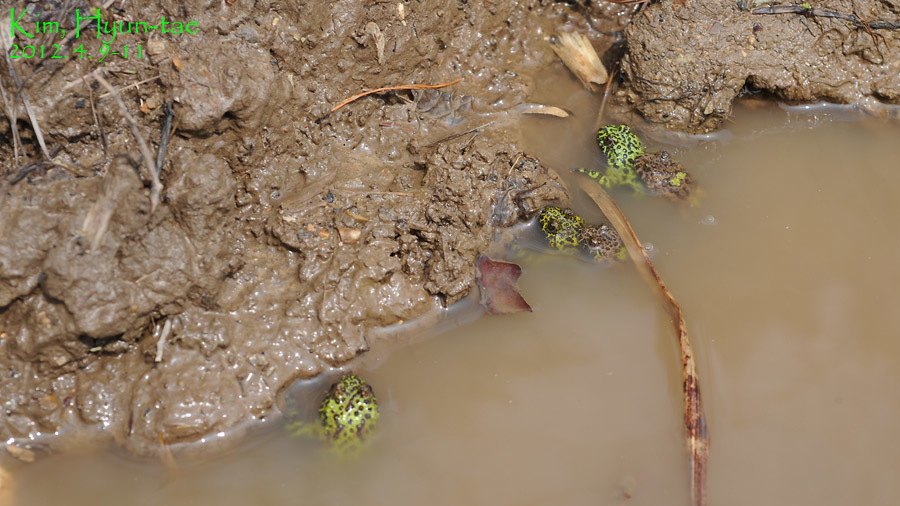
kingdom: Animalia
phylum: Chordata
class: Amphibia
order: Anura
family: Bombinatoridae
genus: Bombina
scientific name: Bombina orientalis
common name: Oriental firebelly toad
